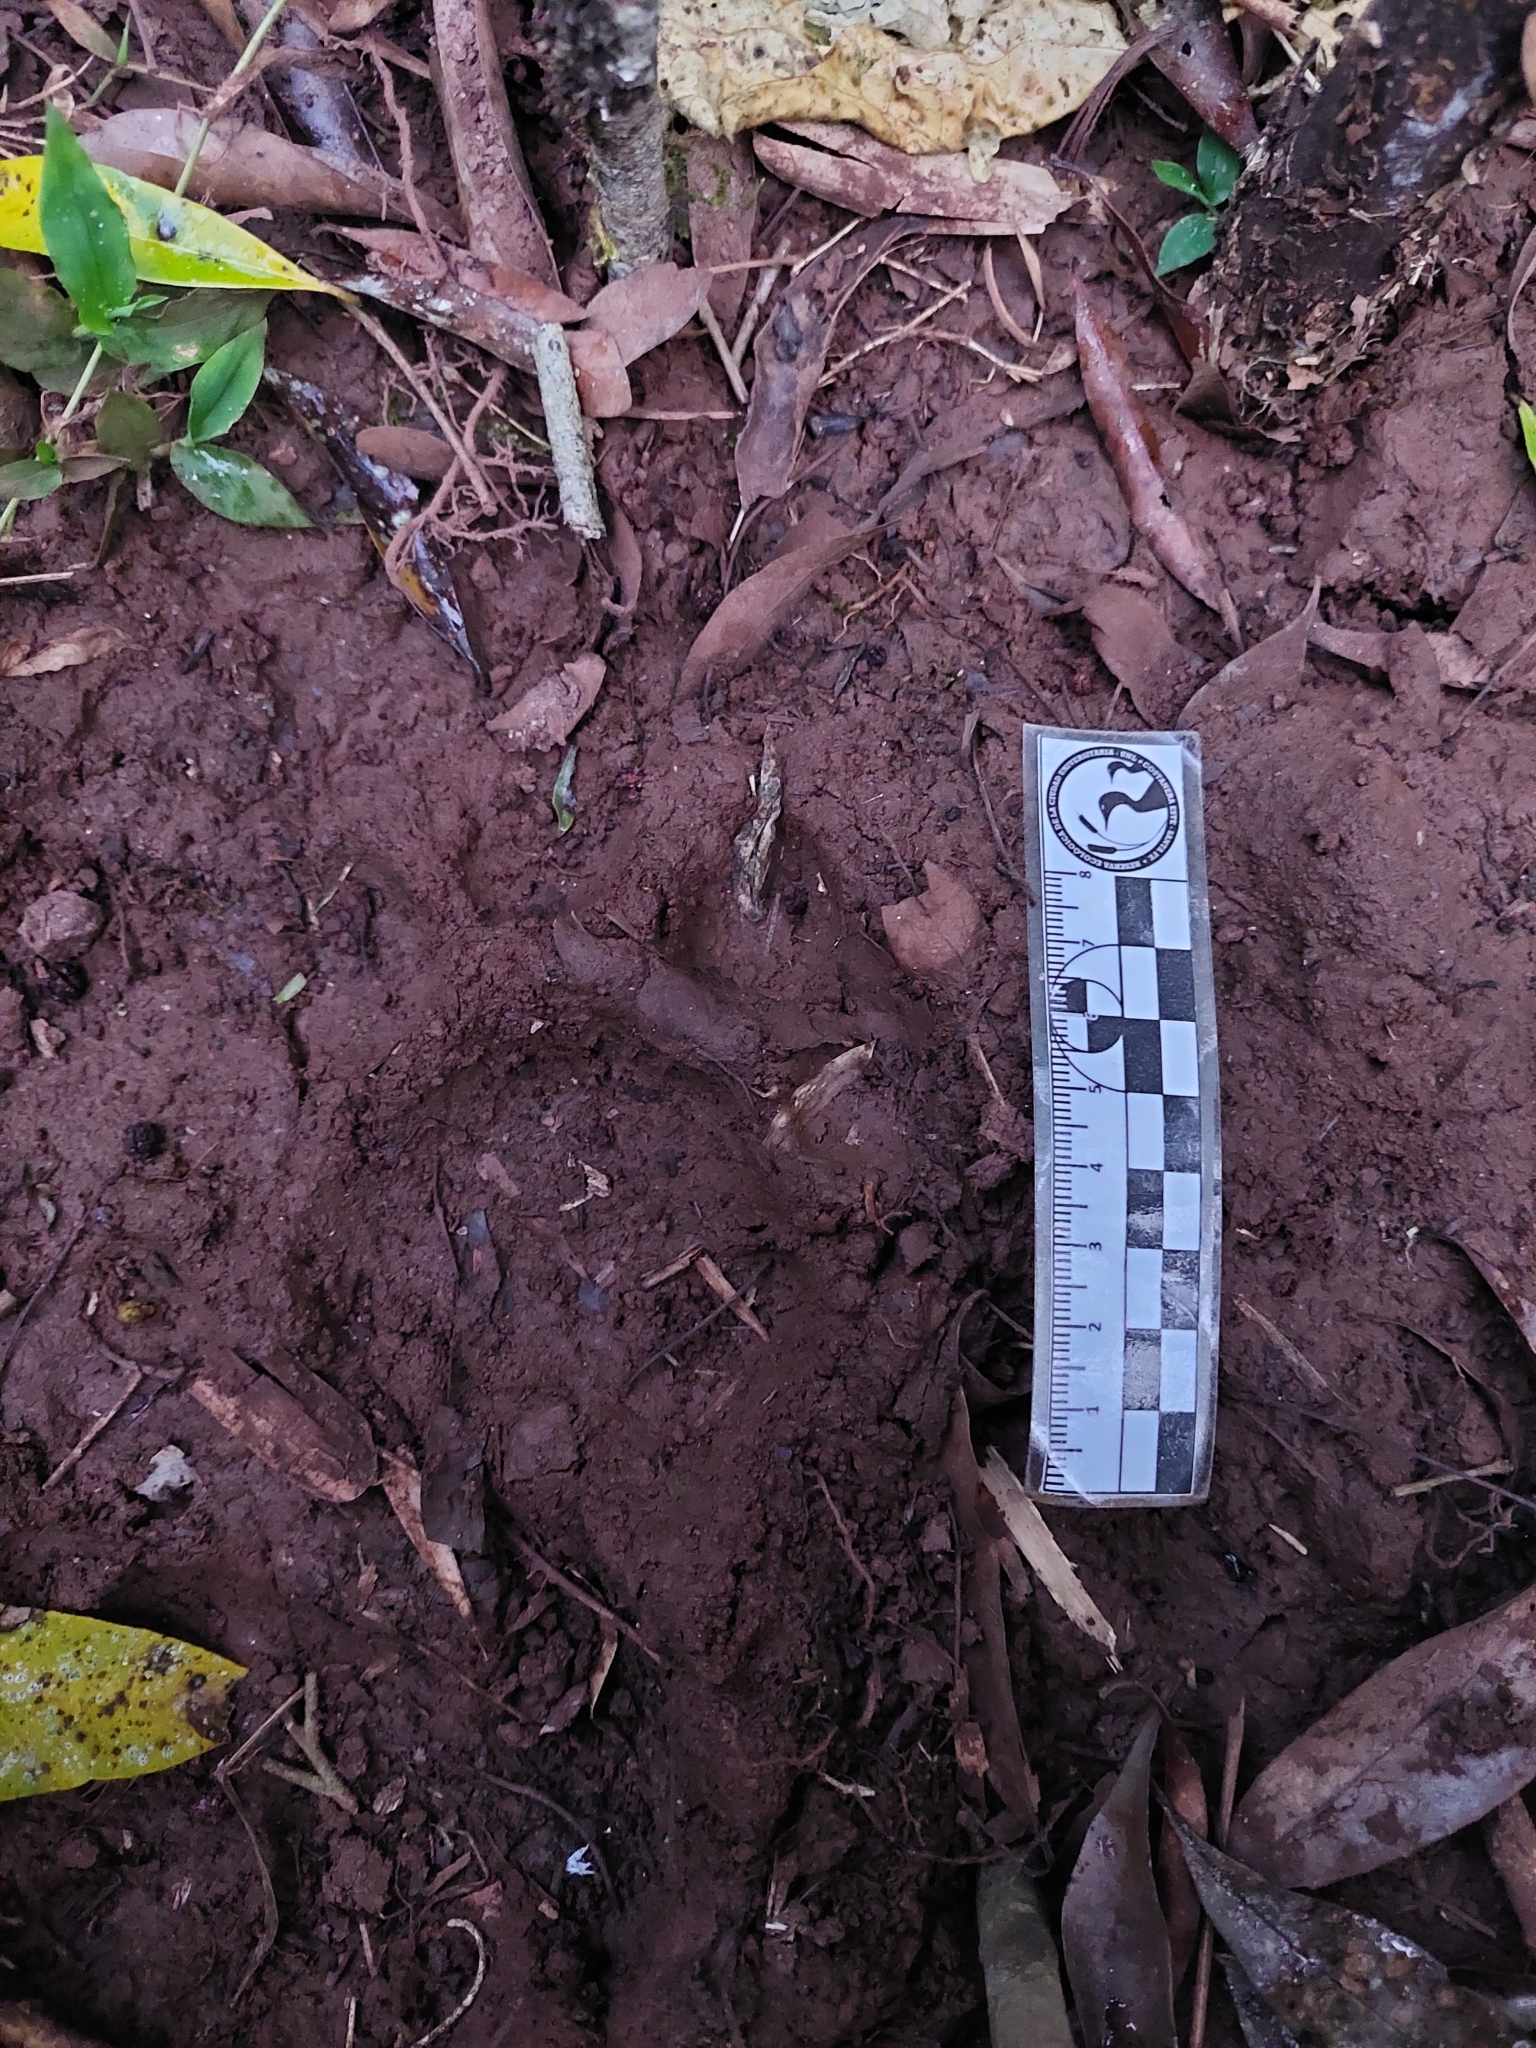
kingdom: Animalia
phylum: Chordata
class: Mammalia
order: Carnivora
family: Felidae
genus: Panthera
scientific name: Panthera onca
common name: Jaguar
